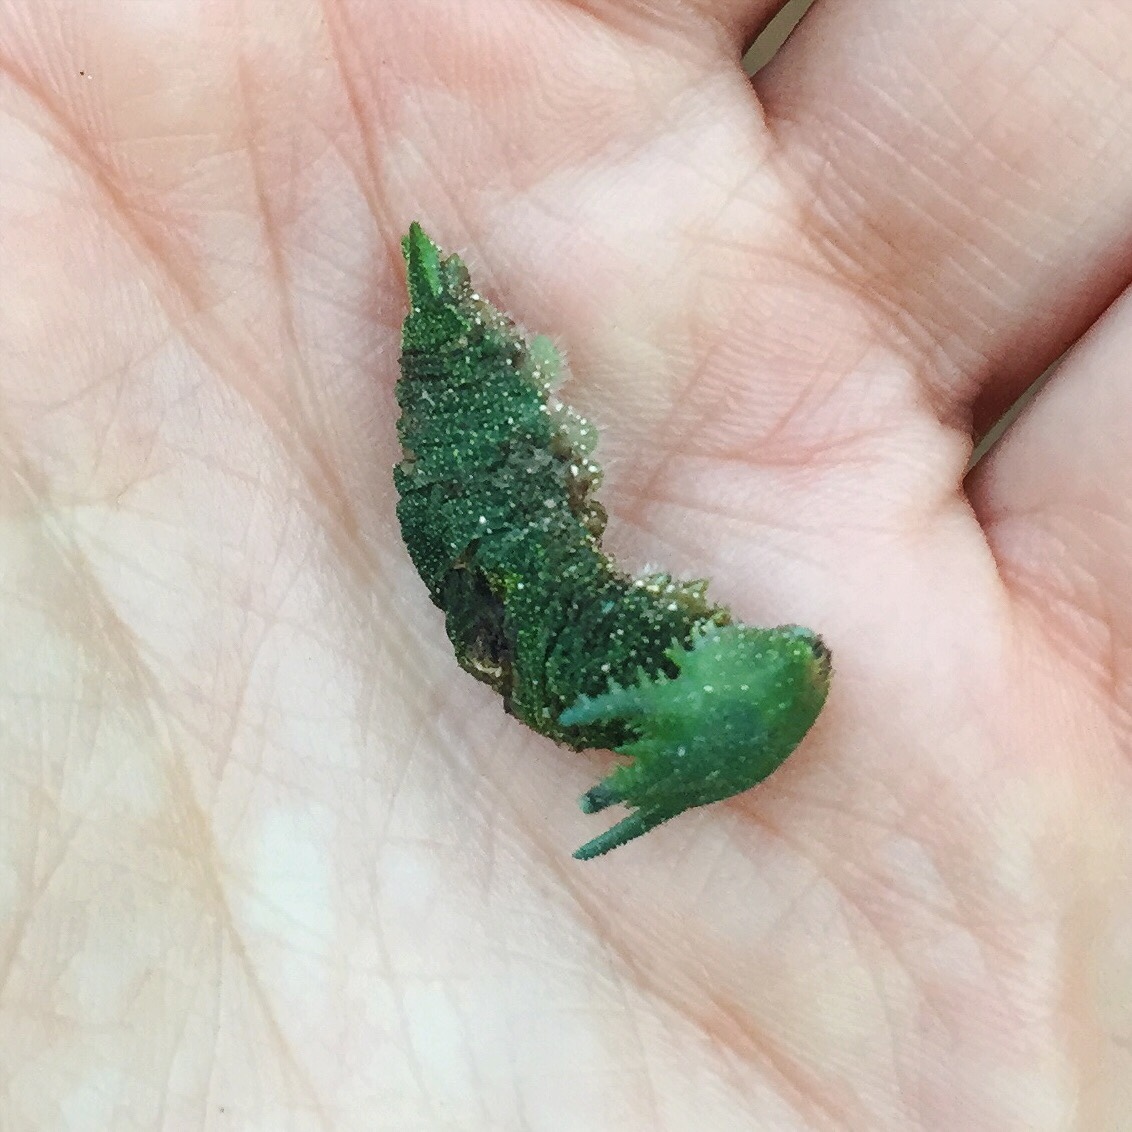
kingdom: Animalia
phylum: Arthropoda
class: Insecta
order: Lepidoptera
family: Nymphalidae
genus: Charaxes
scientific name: Charaxes brutus
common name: White-barred charaxes
